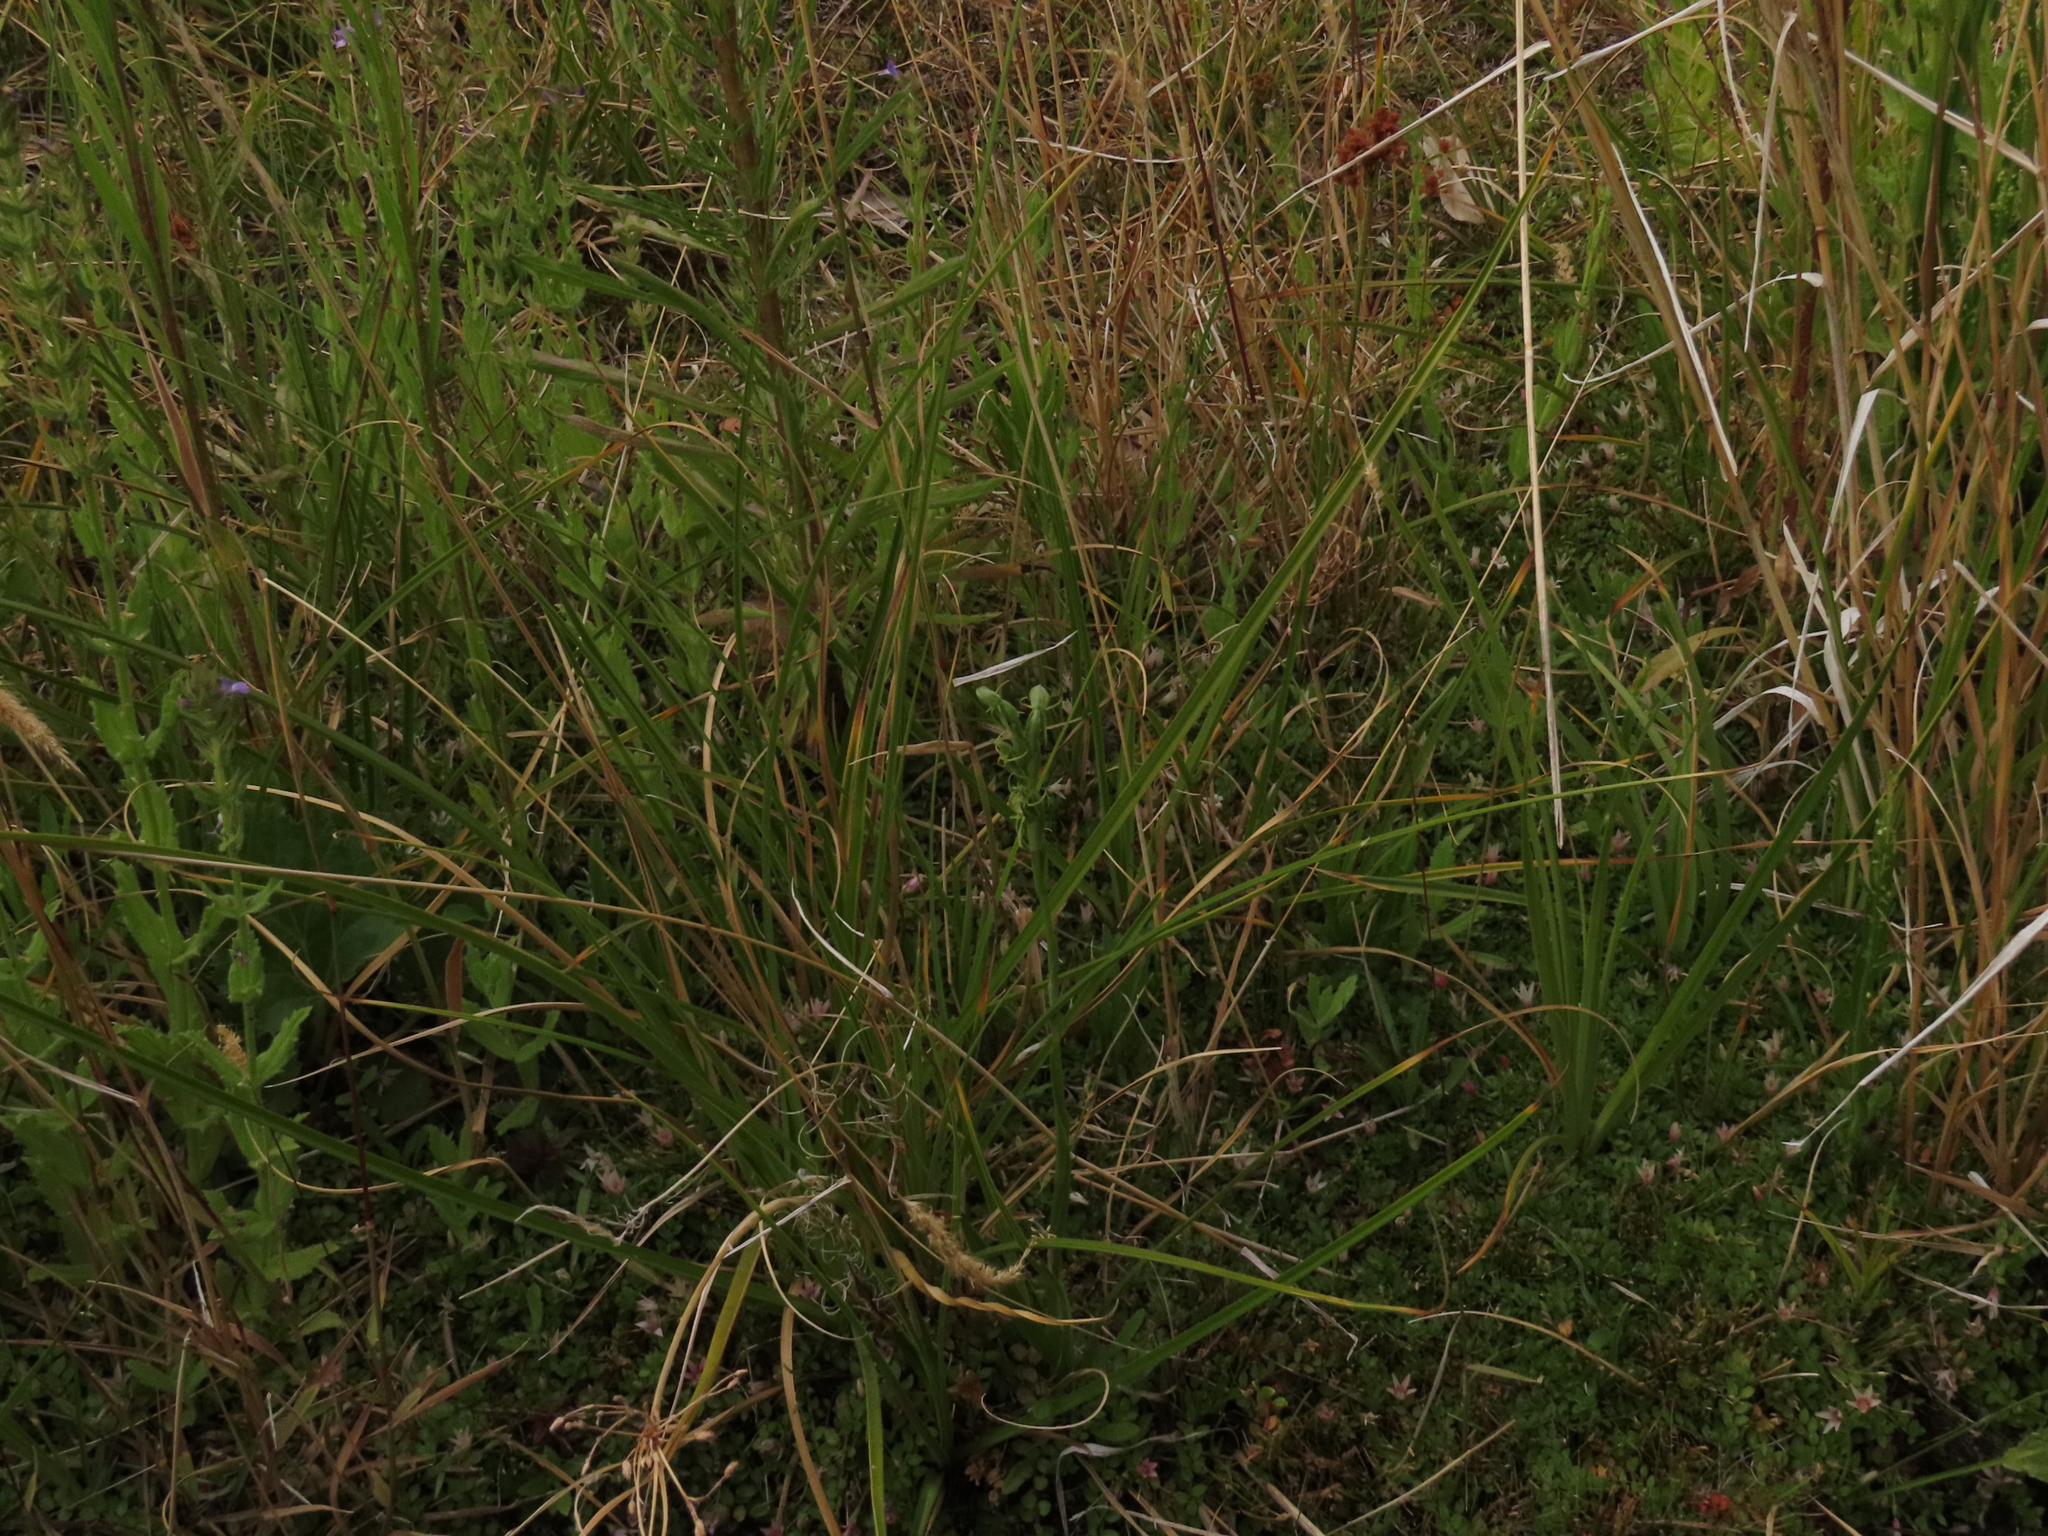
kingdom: Plantae
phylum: Tracheophyta
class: Liliopsida
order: Asparagales
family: Orchidaceae
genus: Habenaria
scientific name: Habenaria pumila
